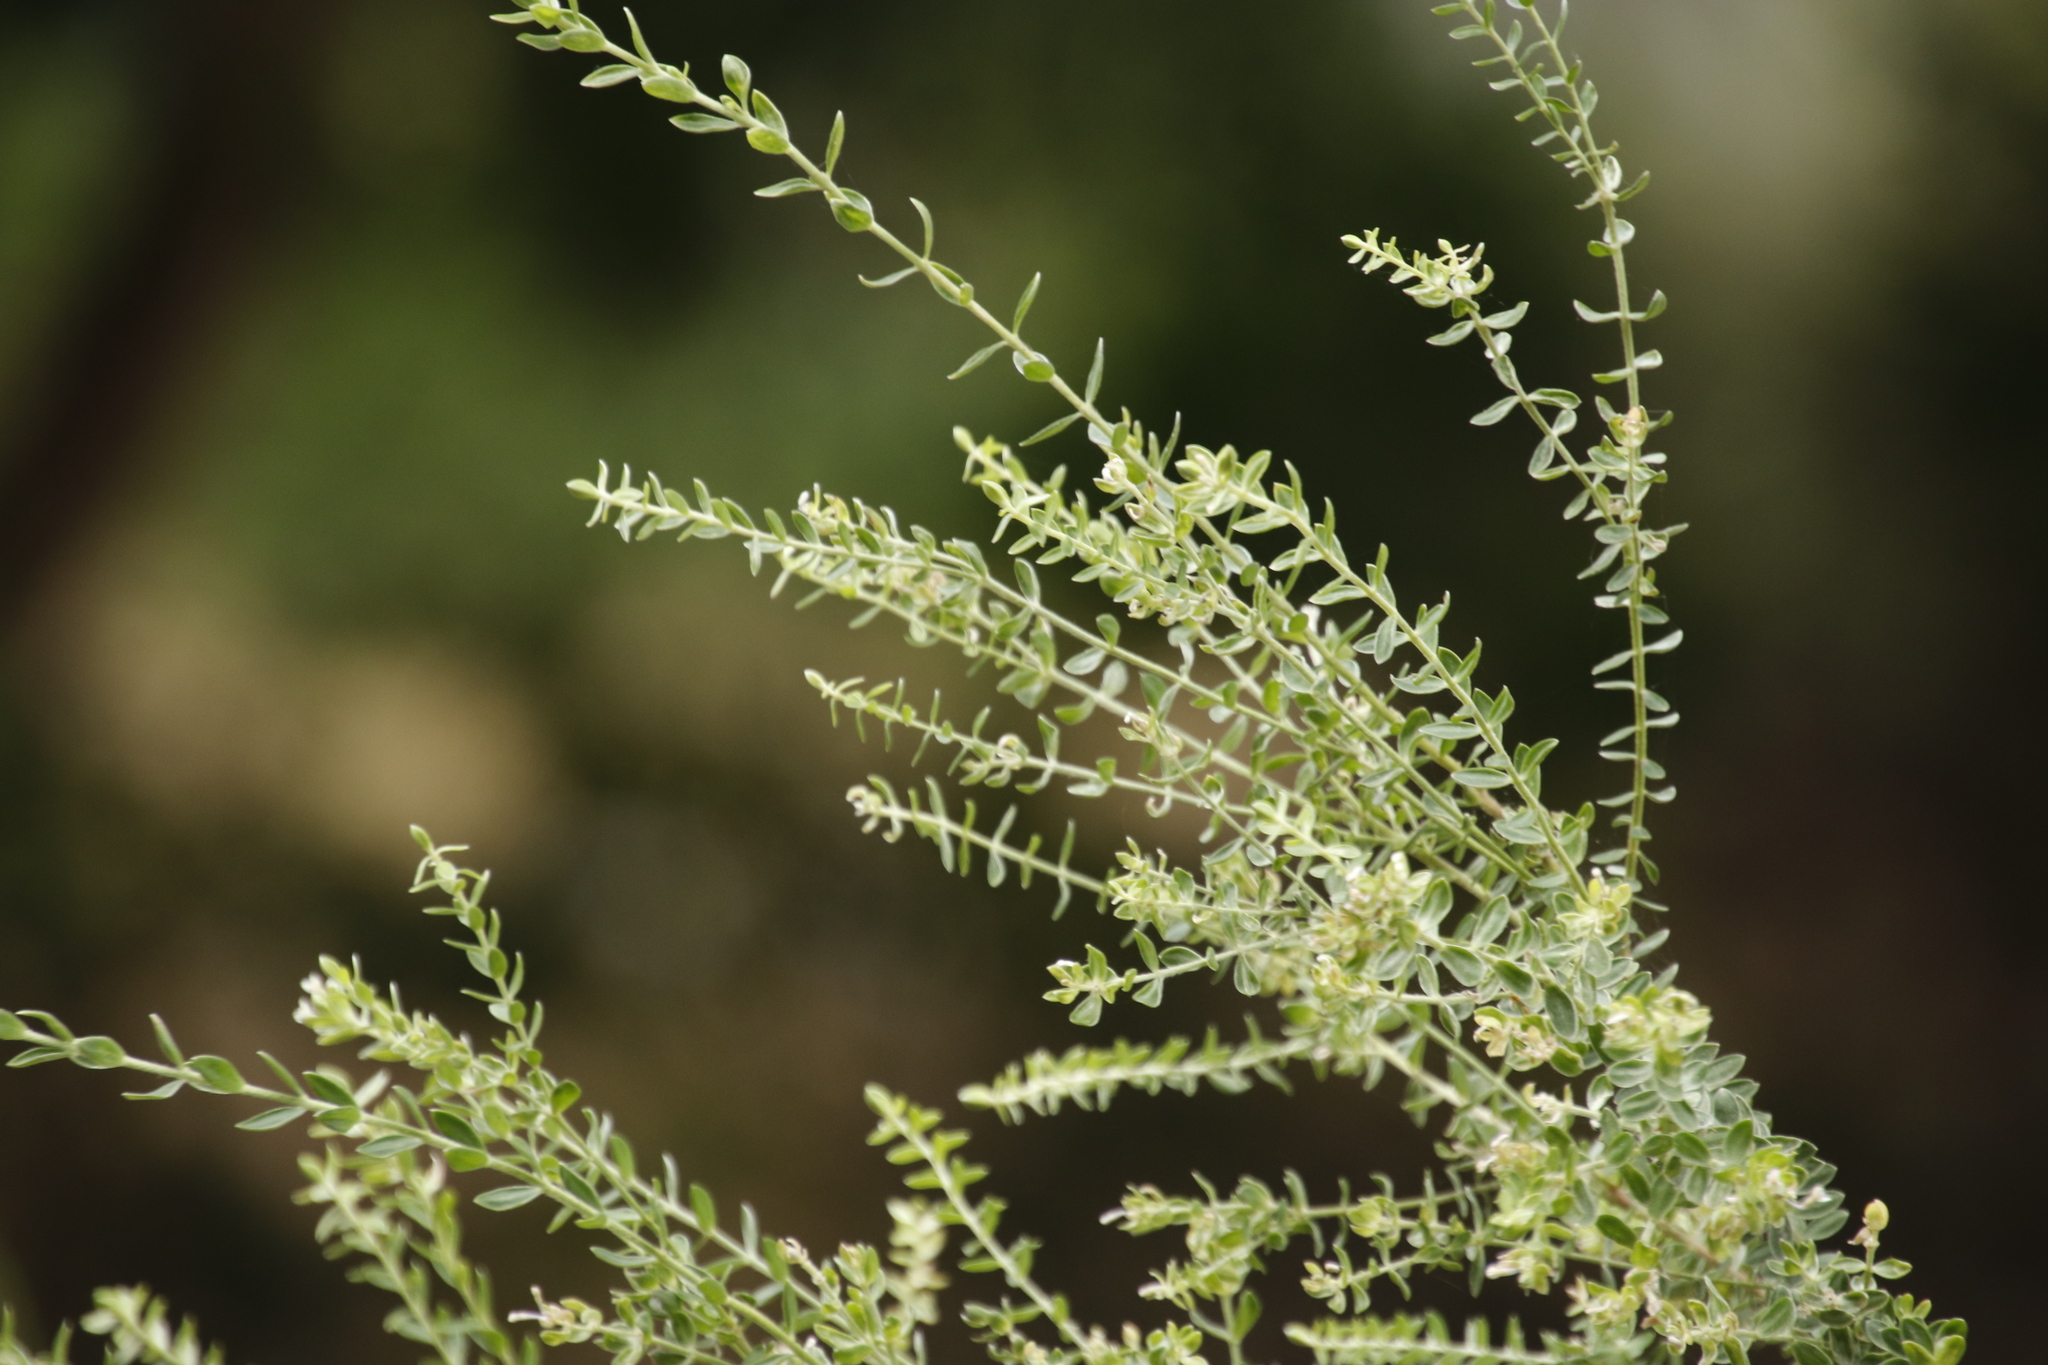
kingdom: Plantae
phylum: Tracheophyta
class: Magnoliopsida
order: Malvales
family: Thymelaeaceae
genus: Gnidia
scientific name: Gnidia sericea
